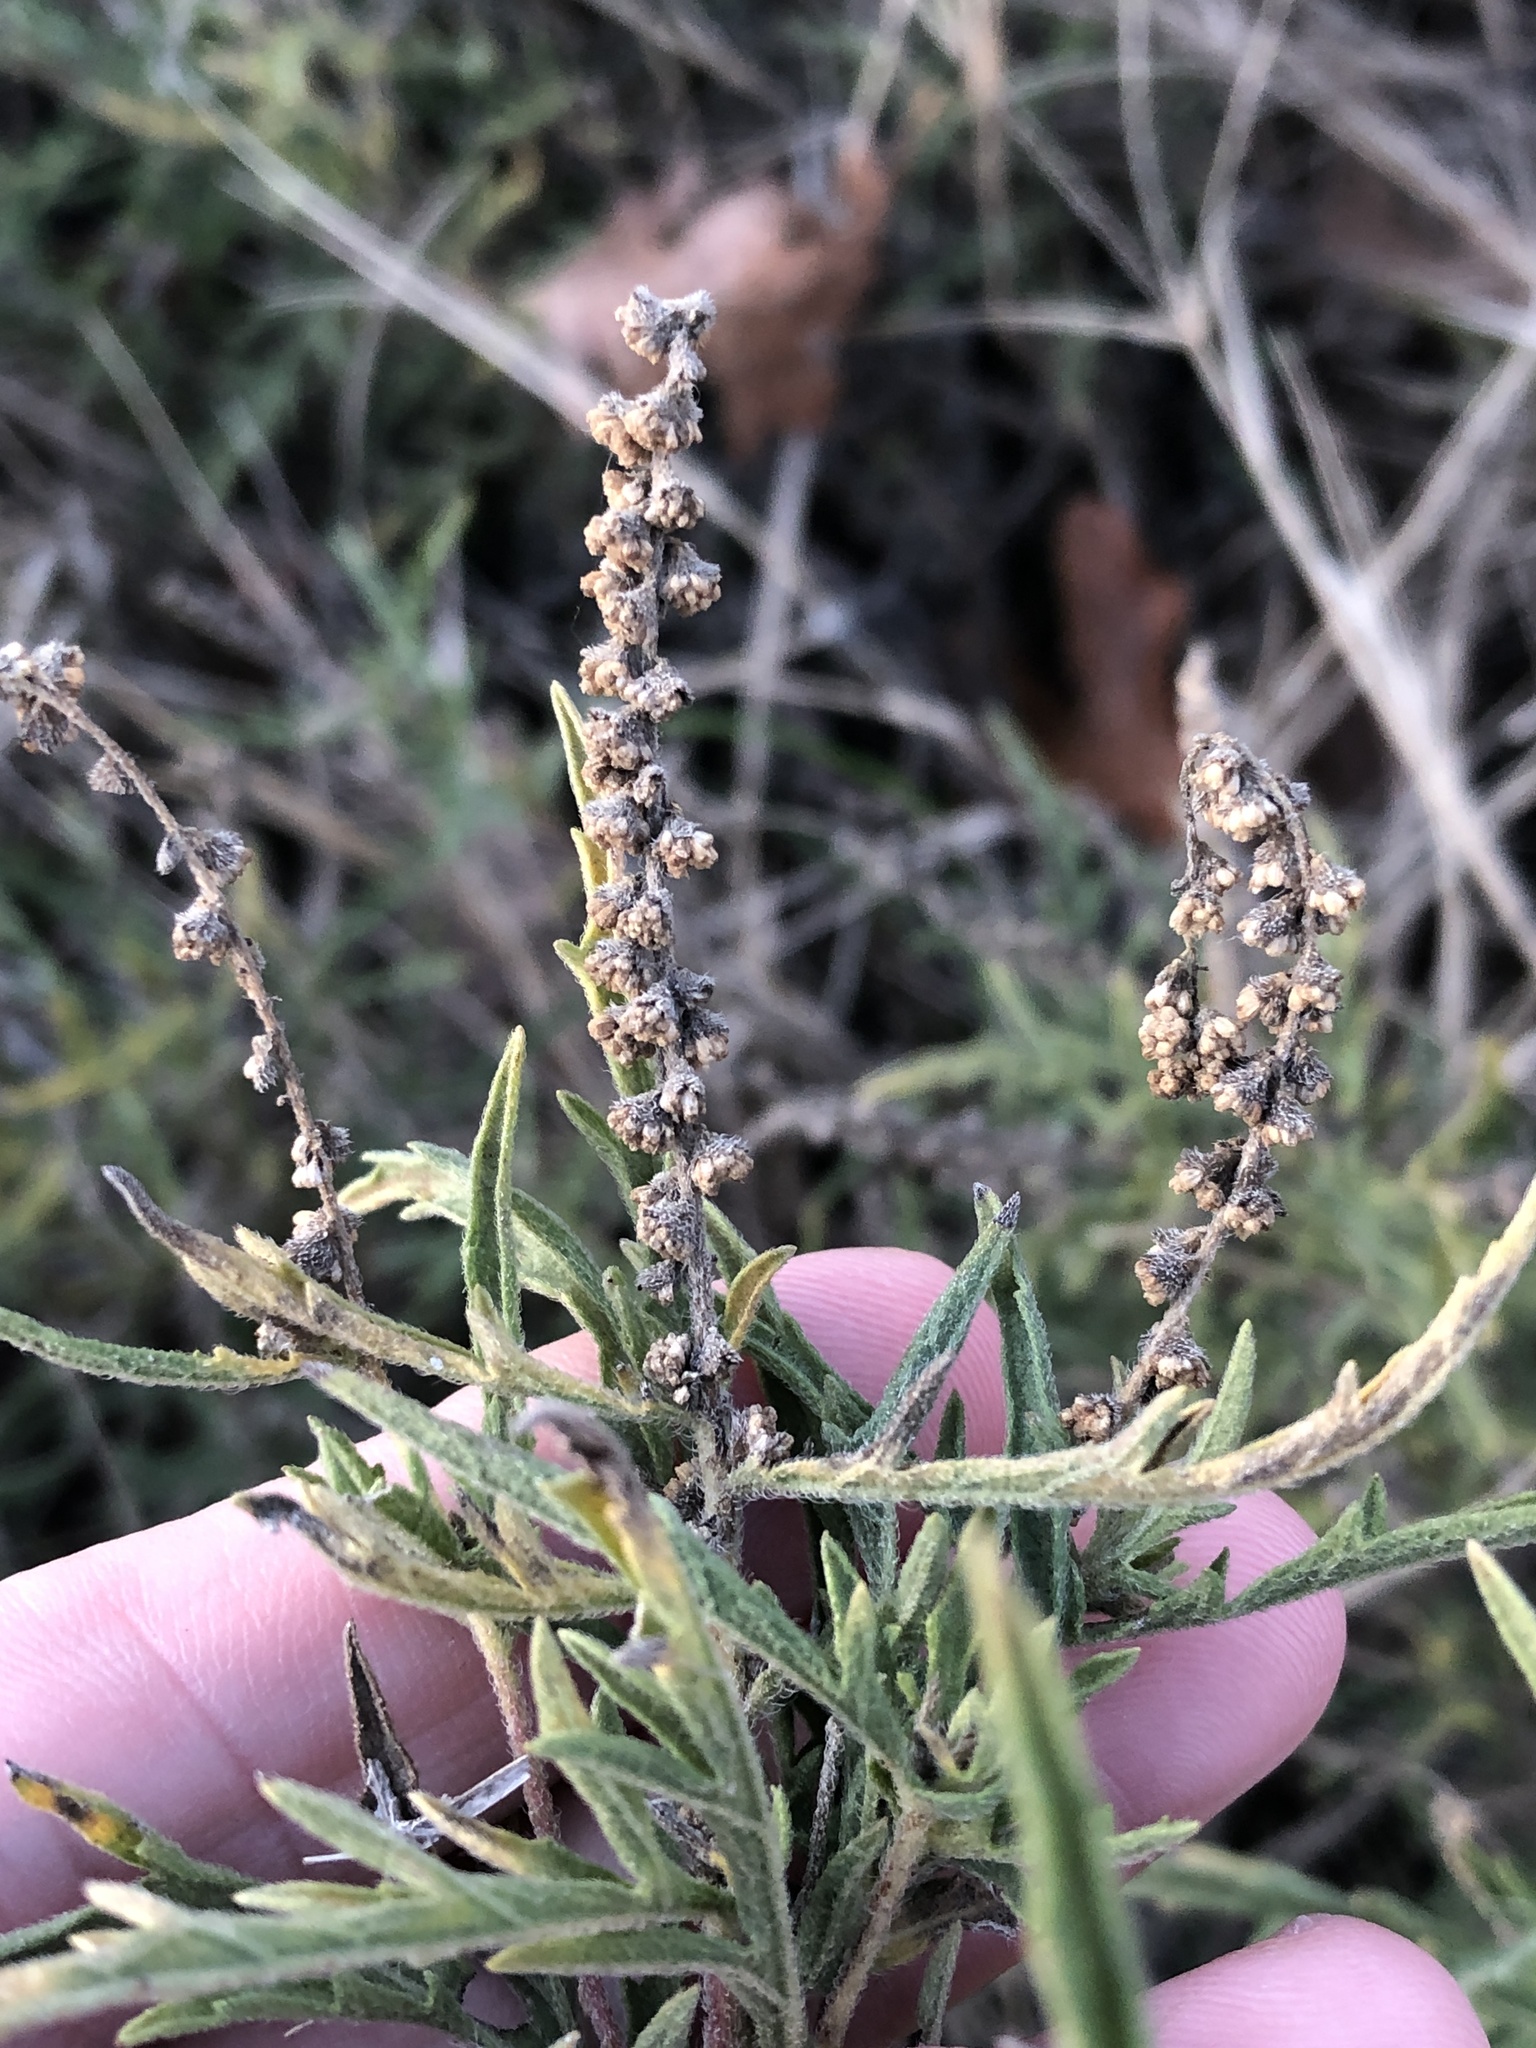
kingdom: Plantae
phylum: Tracheophyta
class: Magnoliopsida
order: Asterales
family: Asteraceae
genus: Ambrosia
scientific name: Ambrosia psilostachya
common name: Perennial ragweed
